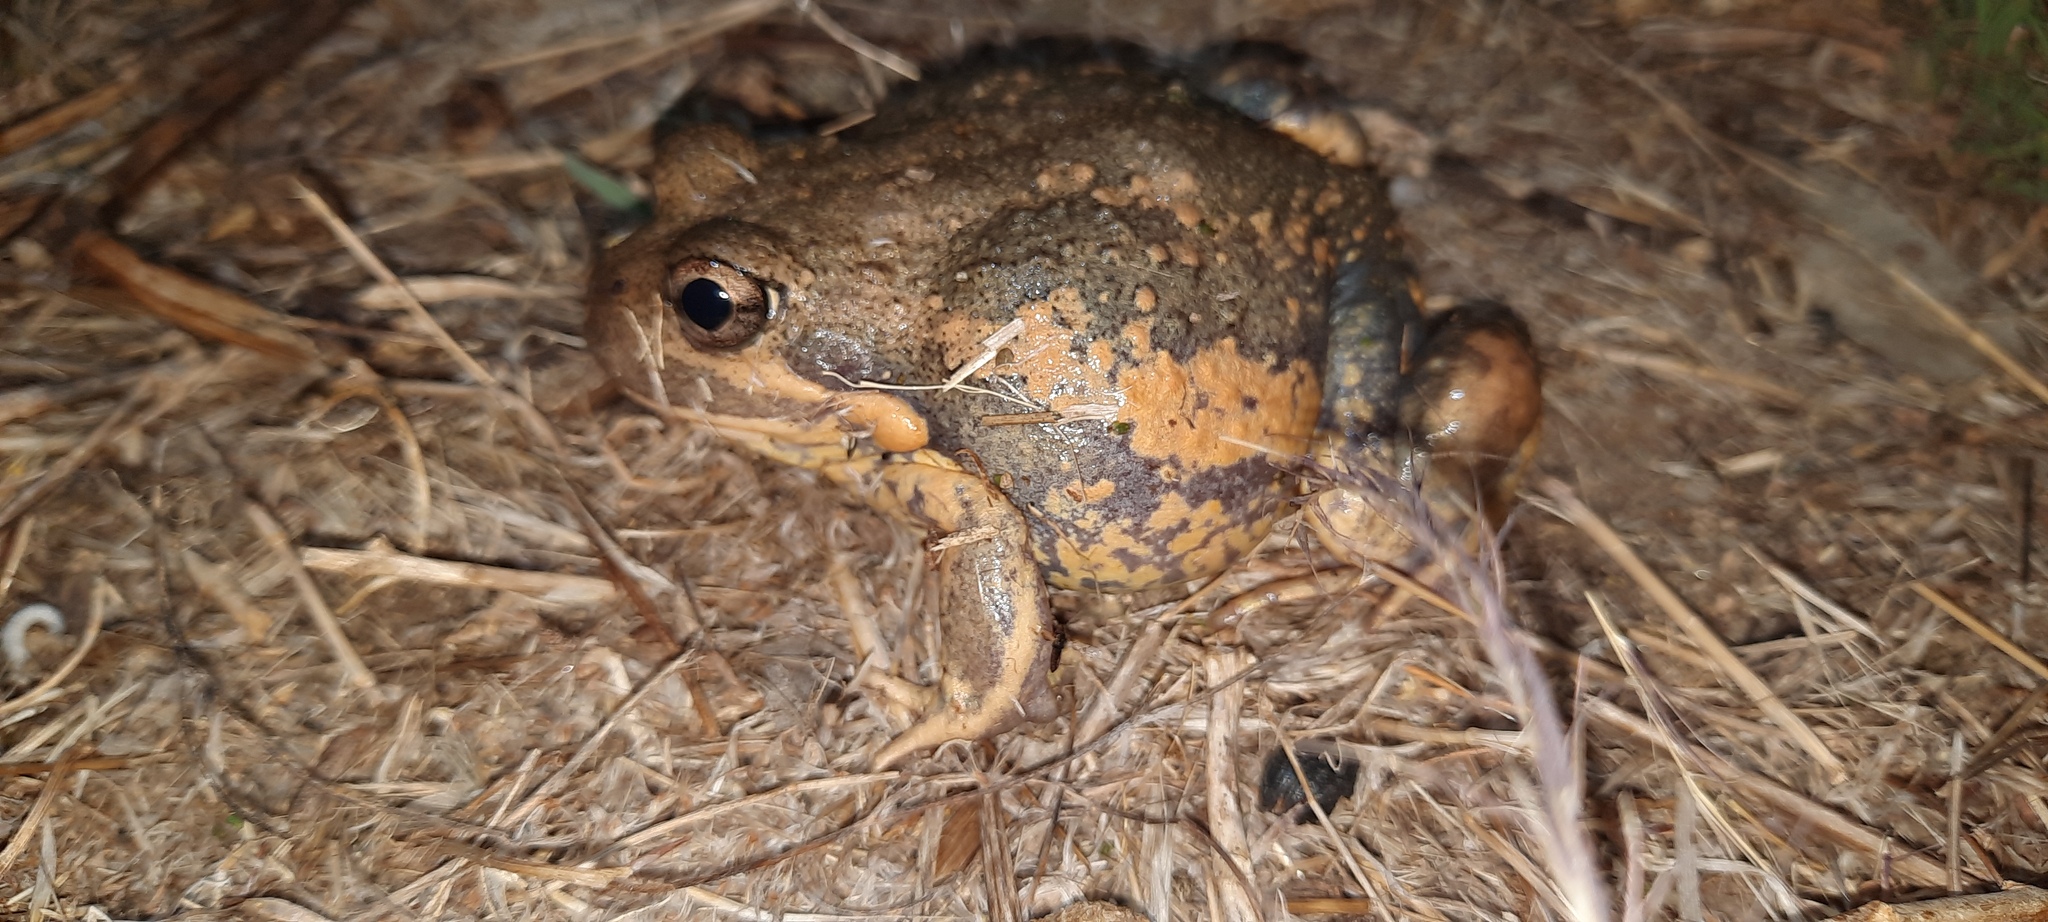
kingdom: Animalia
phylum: Chordata
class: Amphibia
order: Anura
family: Limnodynastidae
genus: Limnodynastes
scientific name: Limnodynastes dumerilii
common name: Banjo frog
